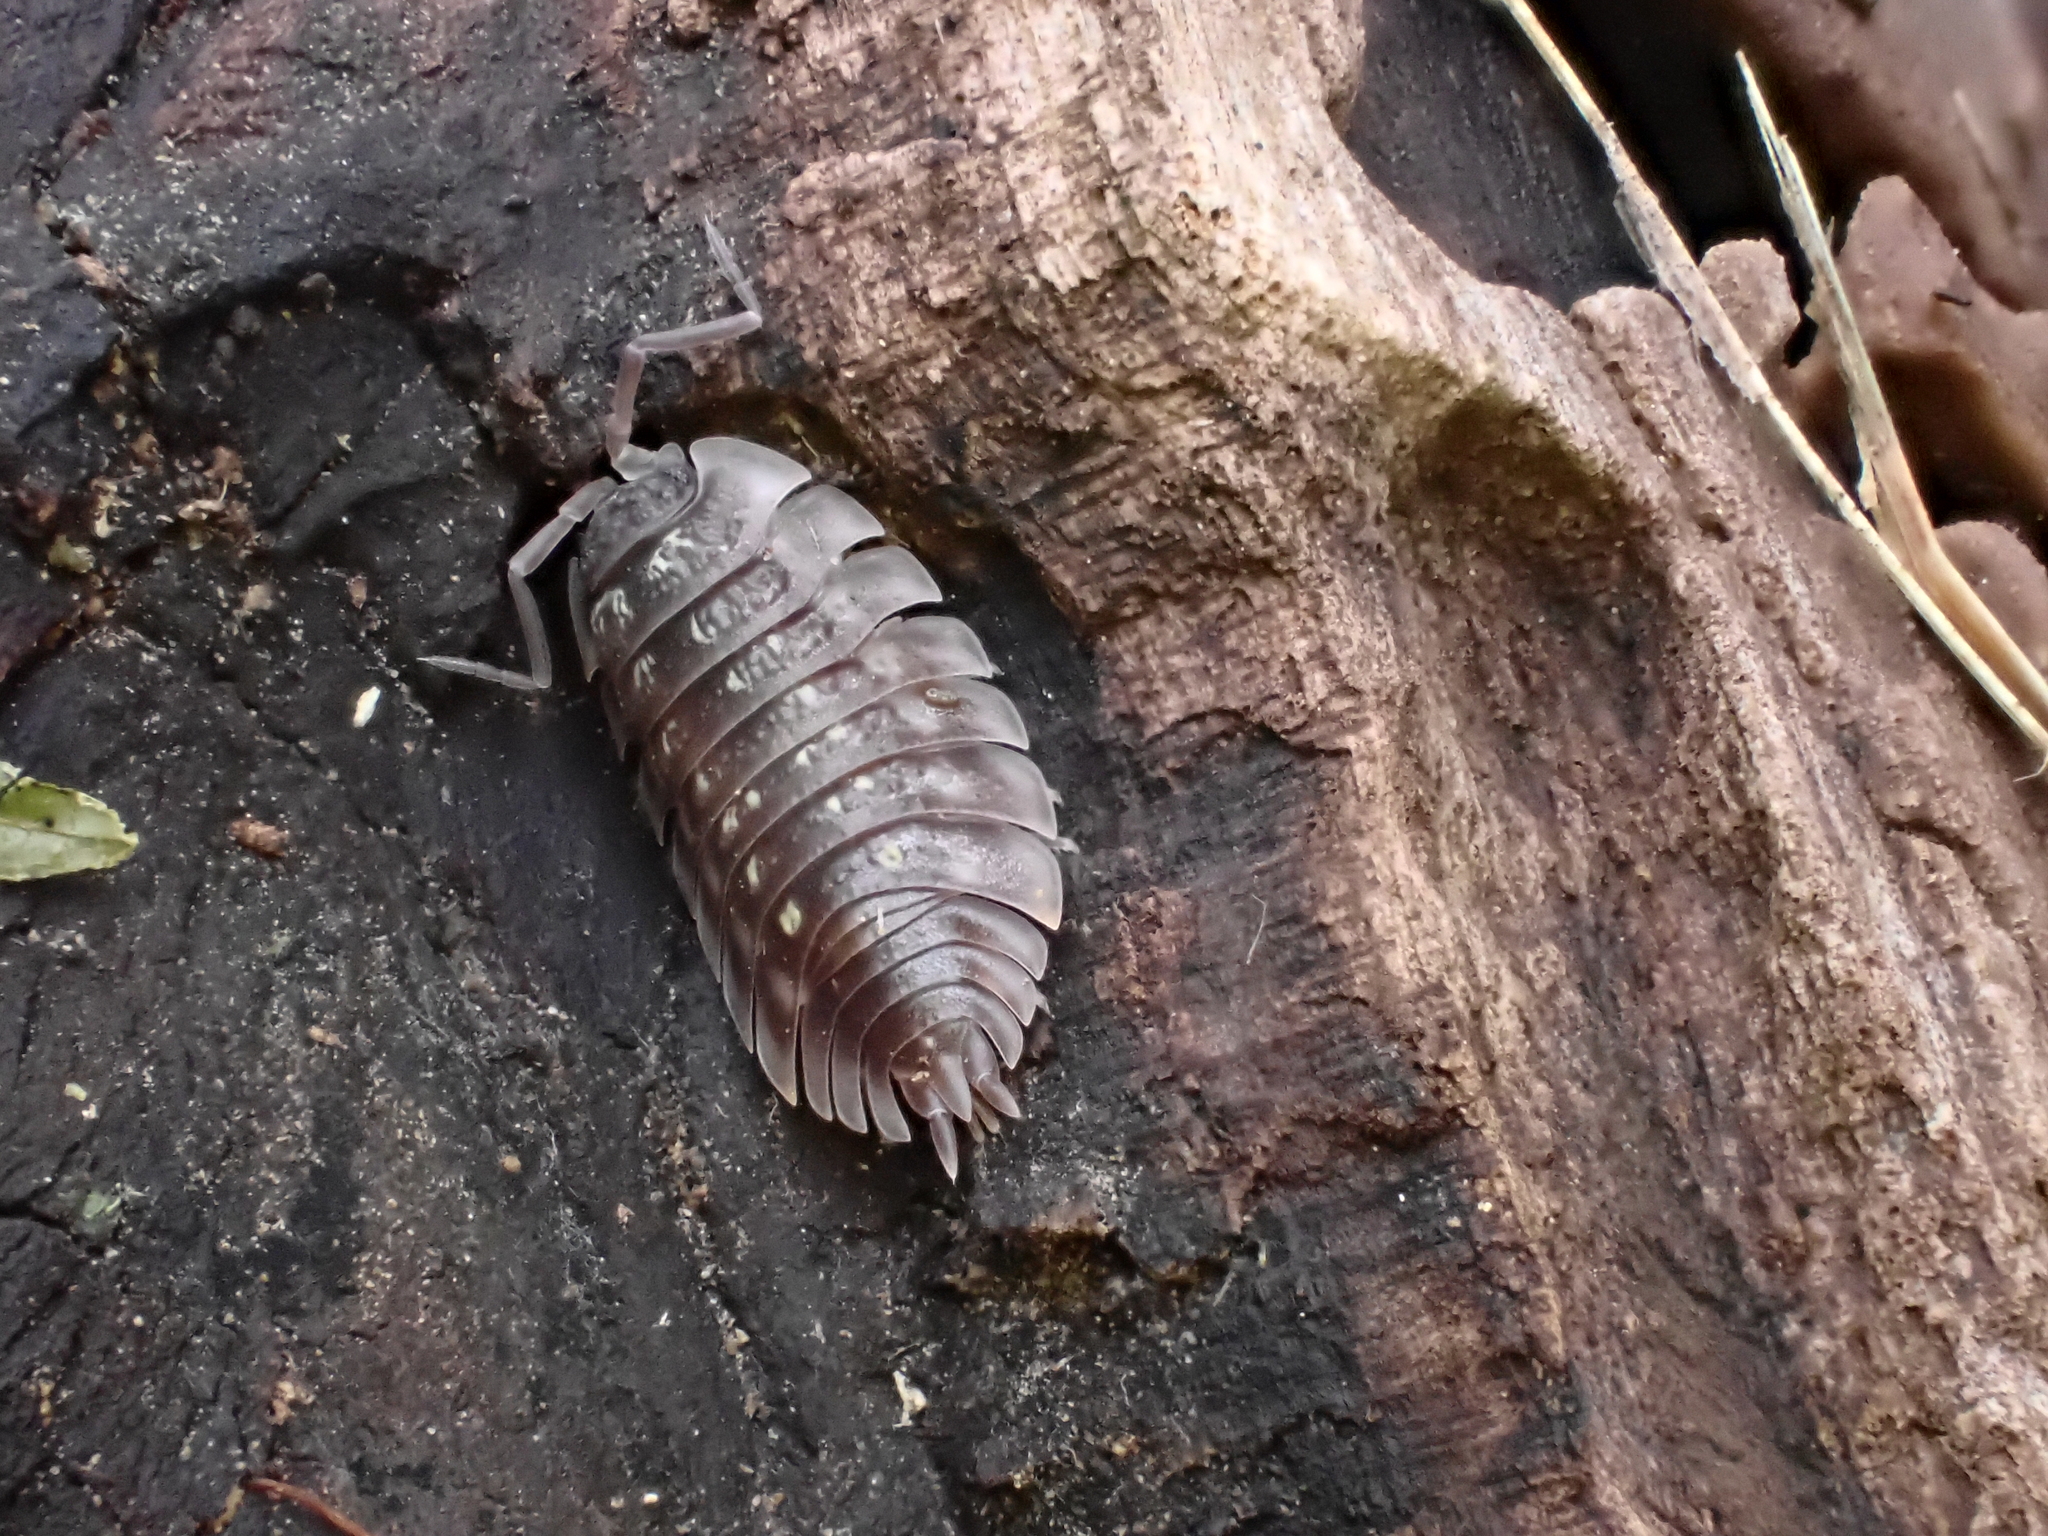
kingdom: Animalia
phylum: Arthropoda
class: Malacostraca
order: Isopoda
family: Oniscidae
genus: Oniscus
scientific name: Oniscus asellus
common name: Common shiny woodlouse
